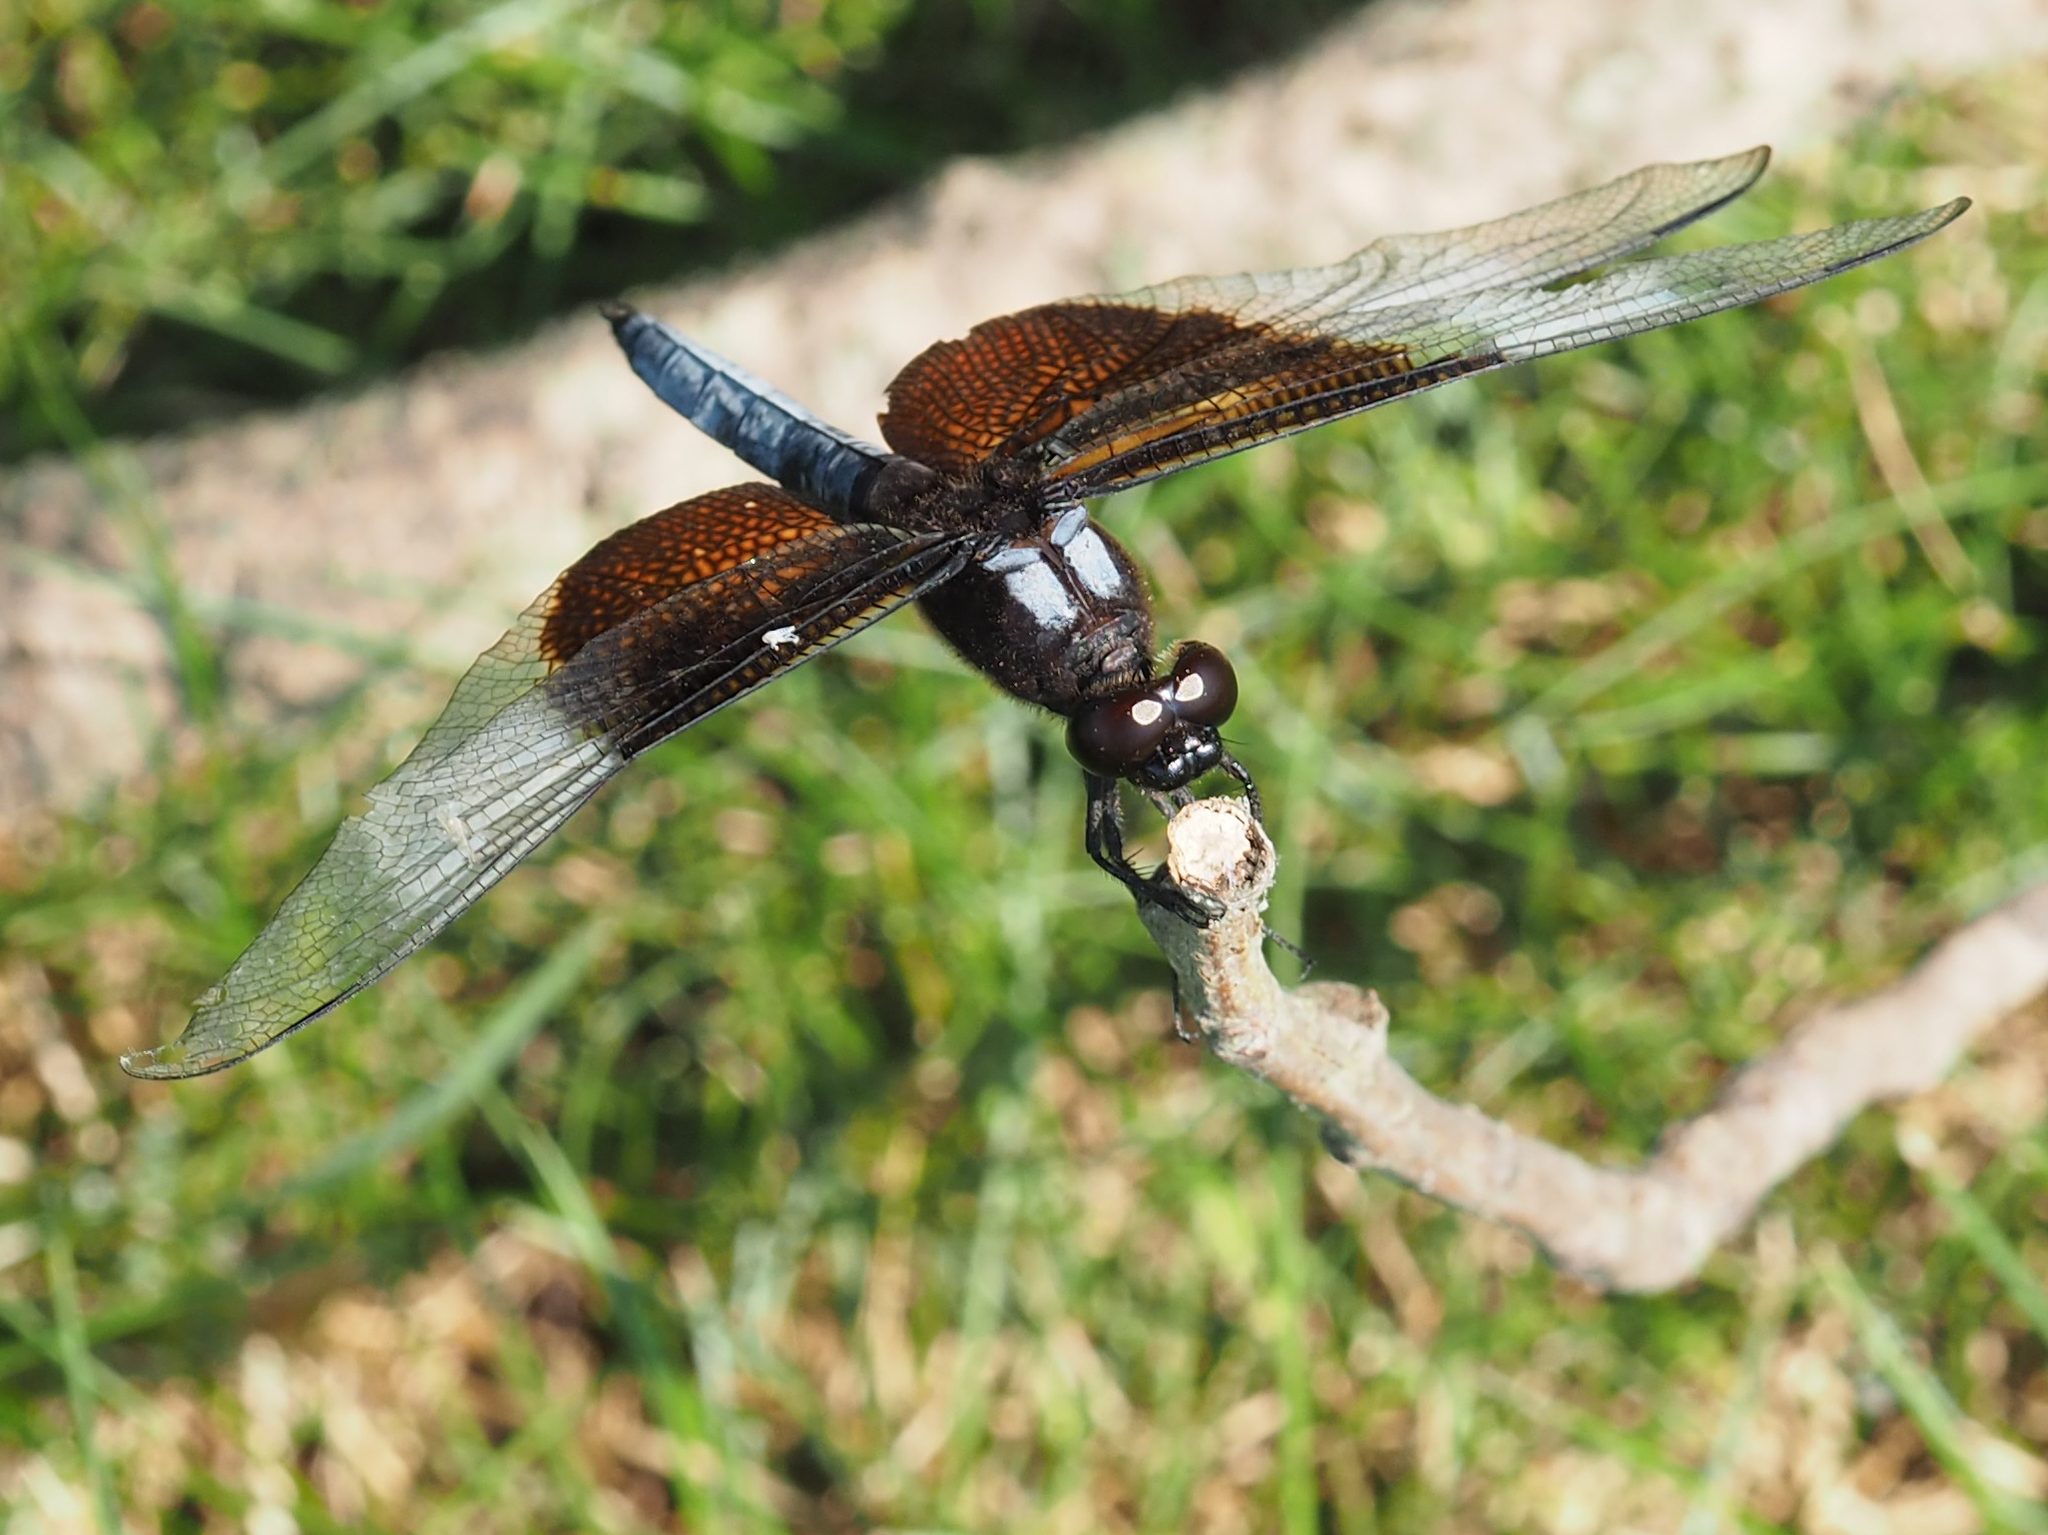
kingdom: Animalia
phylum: Arthropoda
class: Insecta
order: Odonata
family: Libellulidae
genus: Libellula
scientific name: Libellula luctuosa
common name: Widow skimmer
